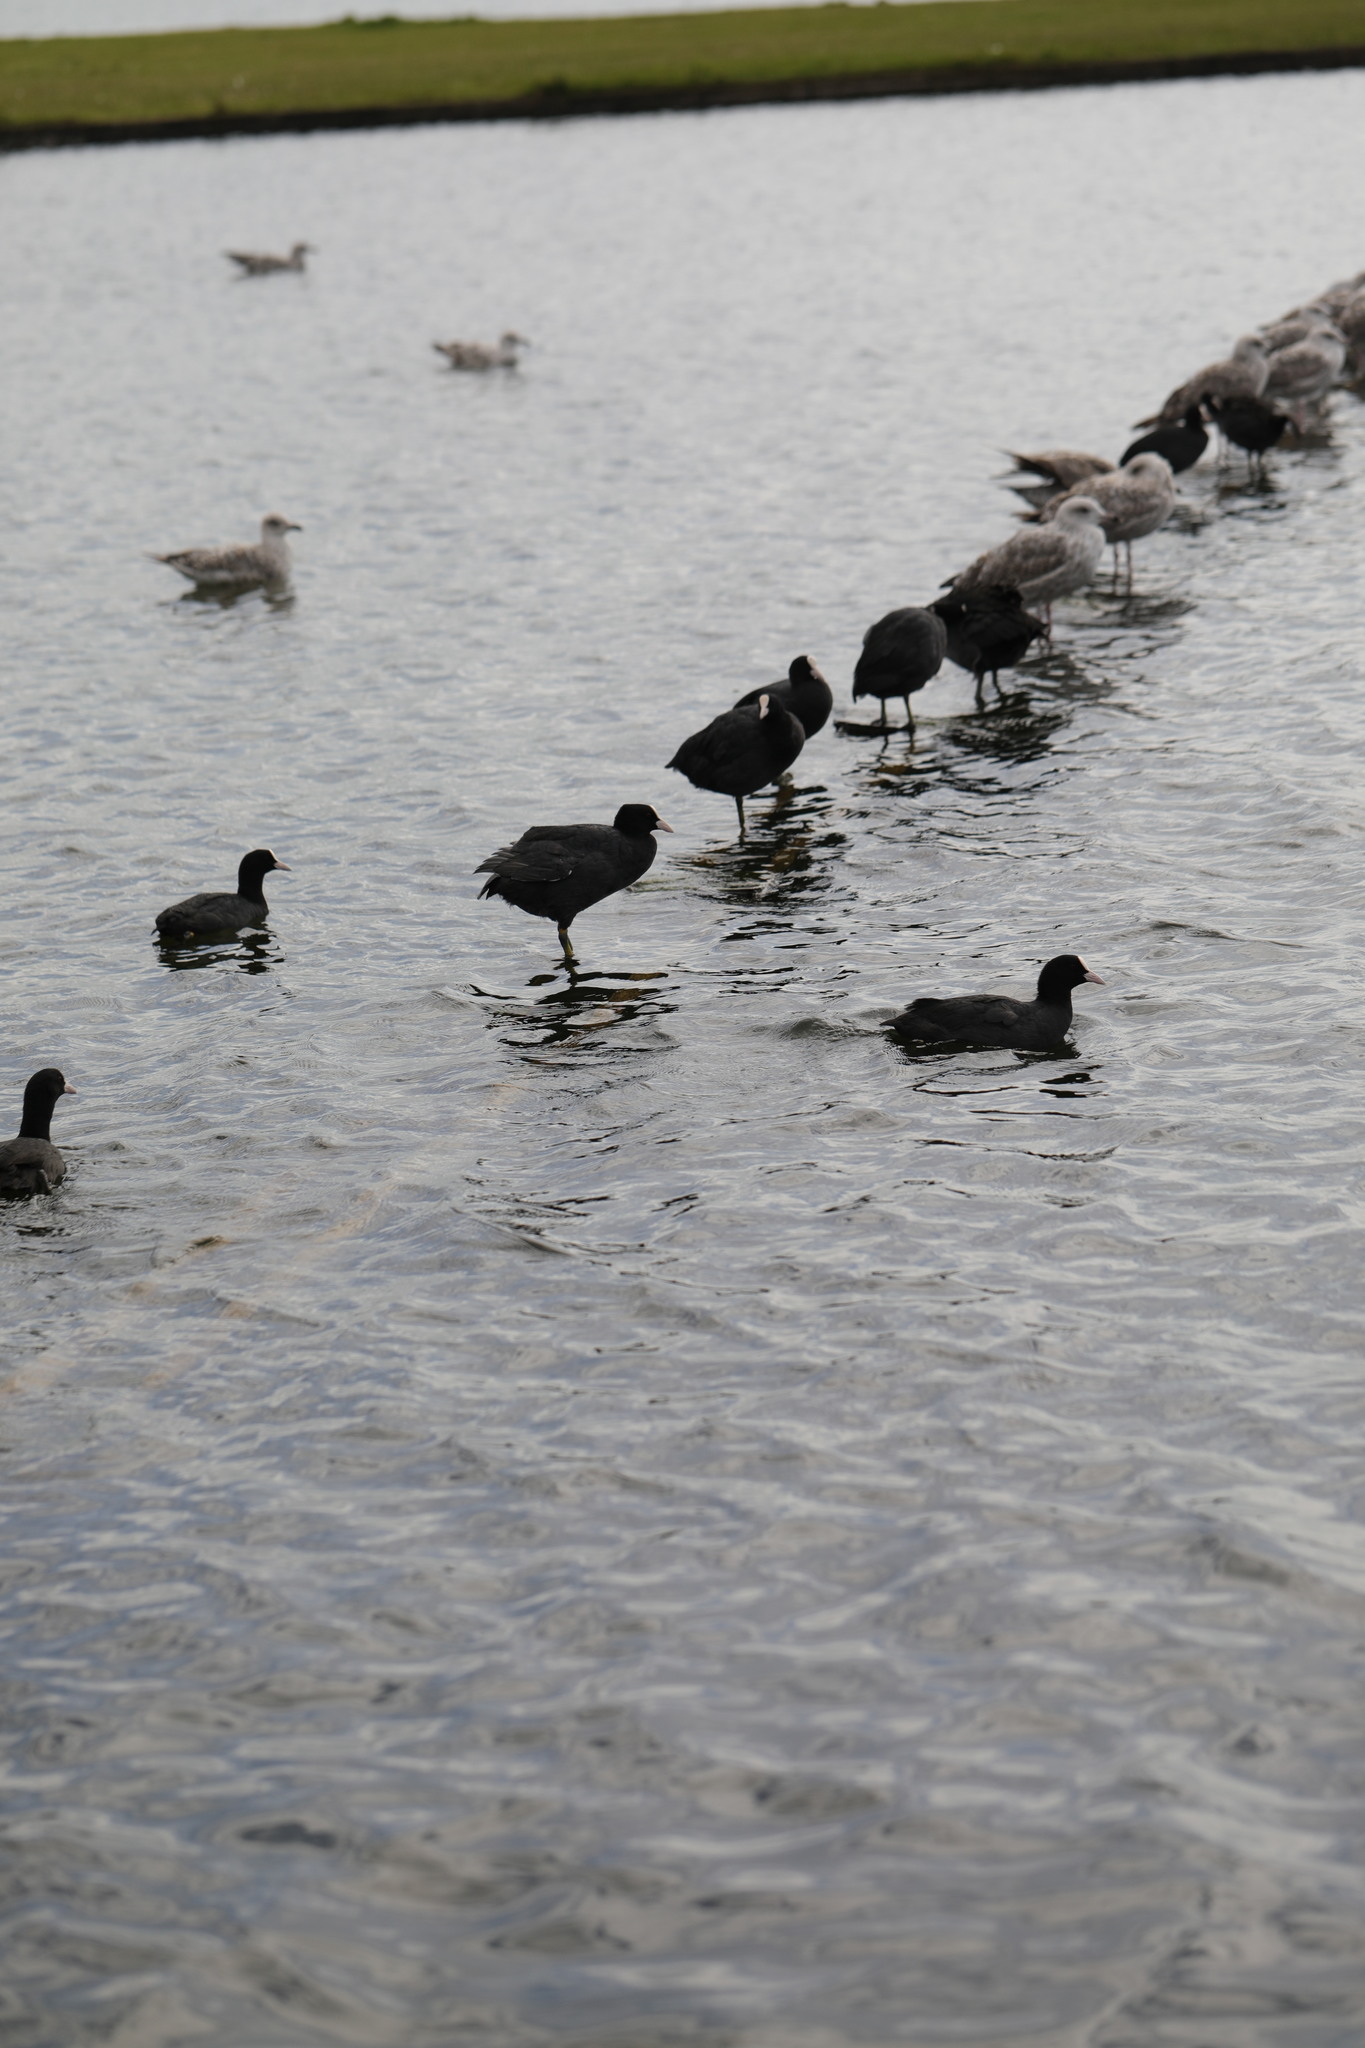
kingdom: Animalia
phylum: Chordata
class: Aves
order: Gruiformes
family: Rallidae
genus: Fulica
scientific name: Fulica atra
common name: Eurasian coot
